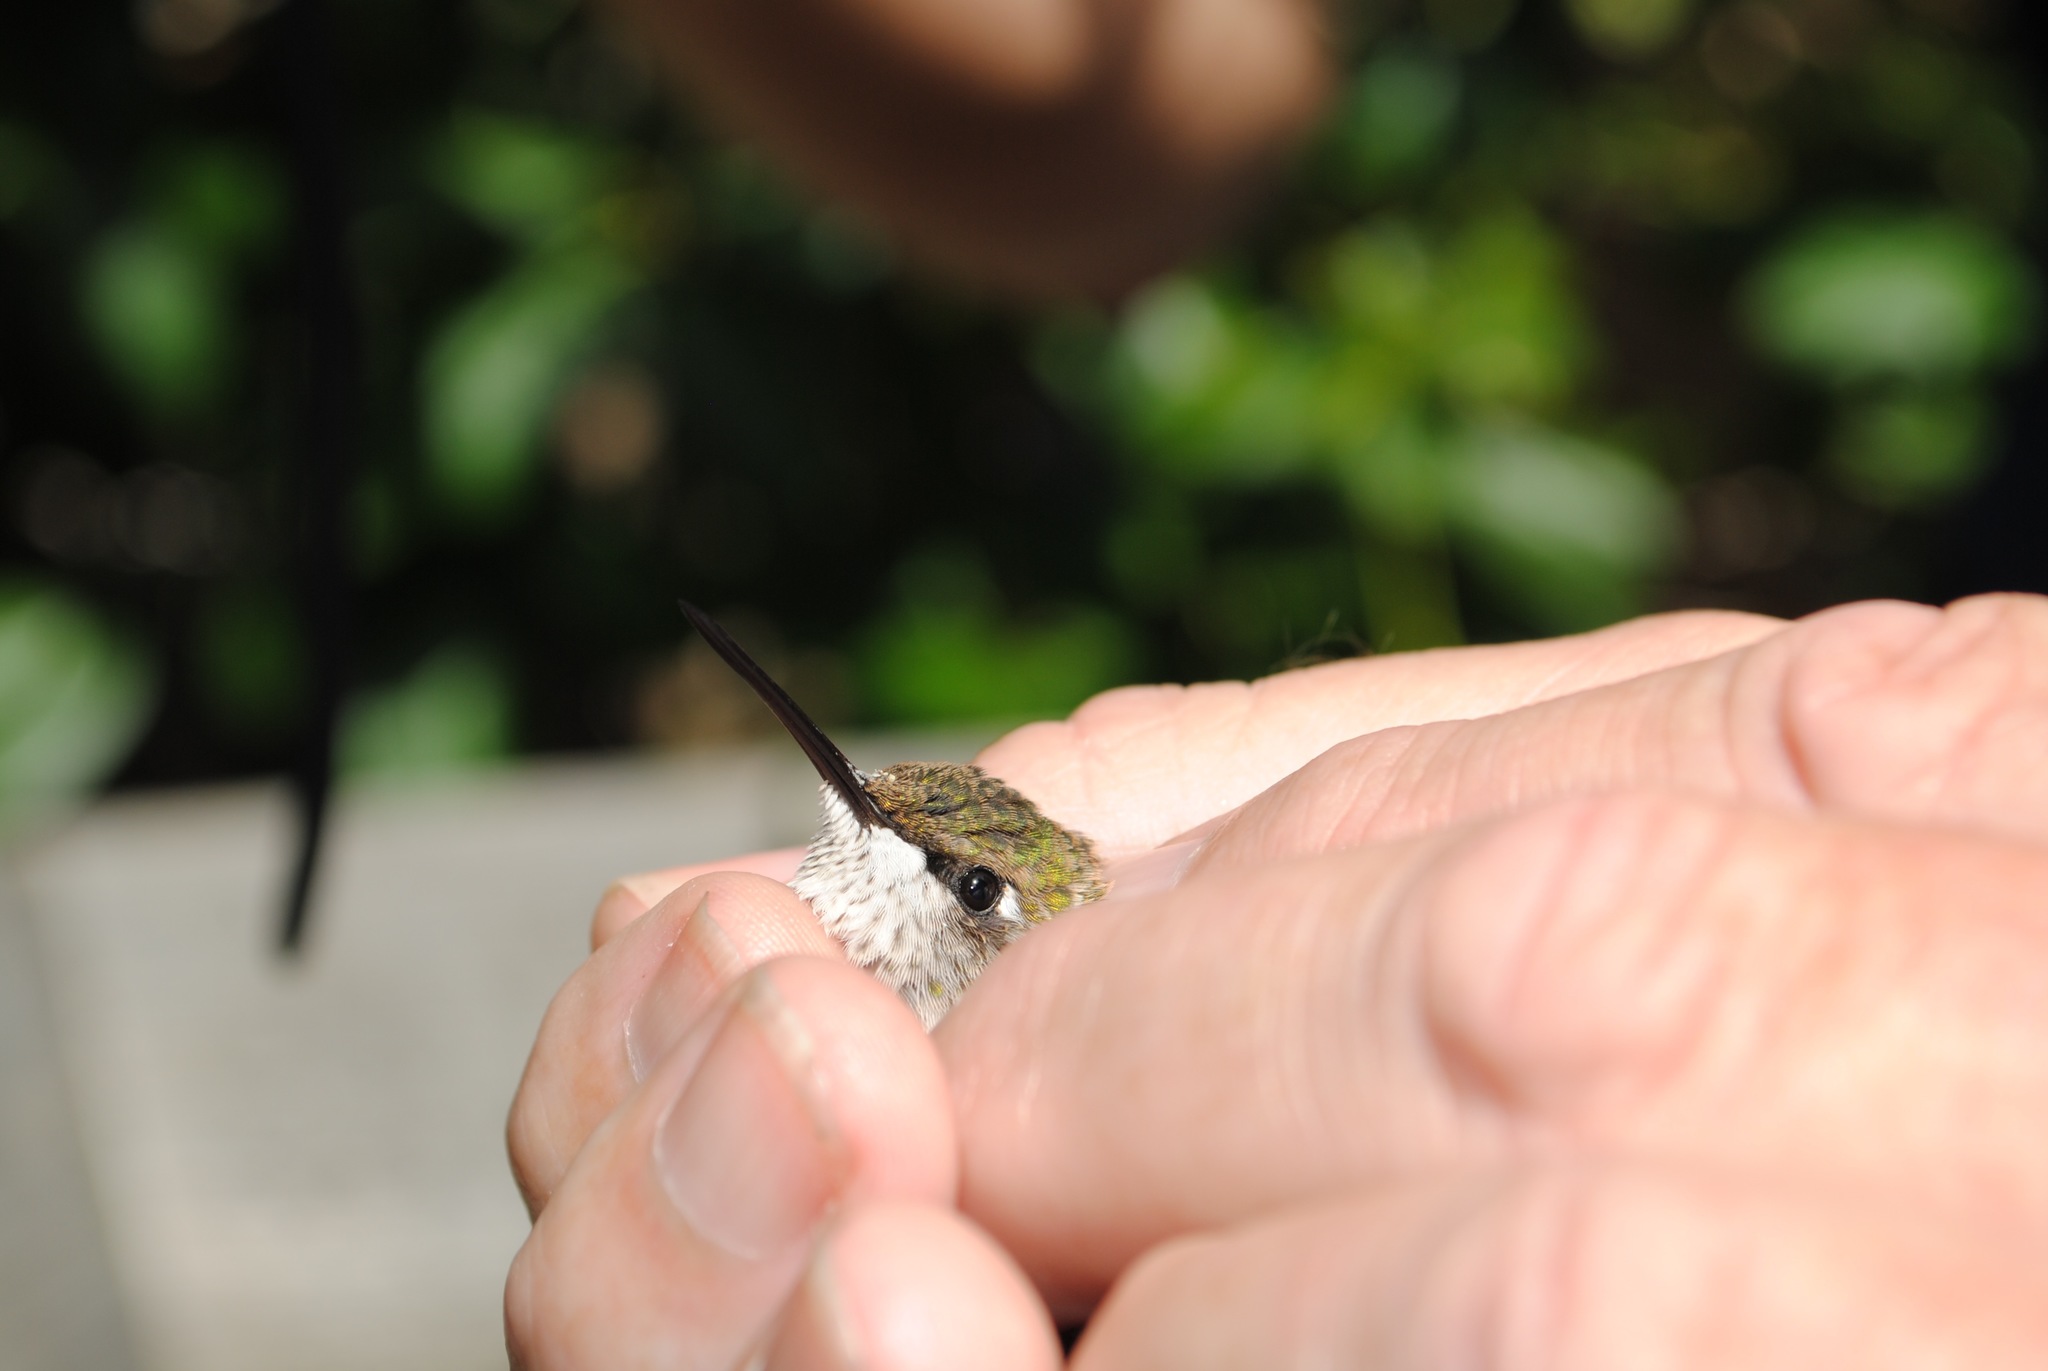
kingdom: Animalia
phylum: Chordata
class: Aves
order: Apodiformes
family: Trochilidae
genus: Archilochus
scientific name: Archilochus colubris
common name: Ruby-throated hummingbird
